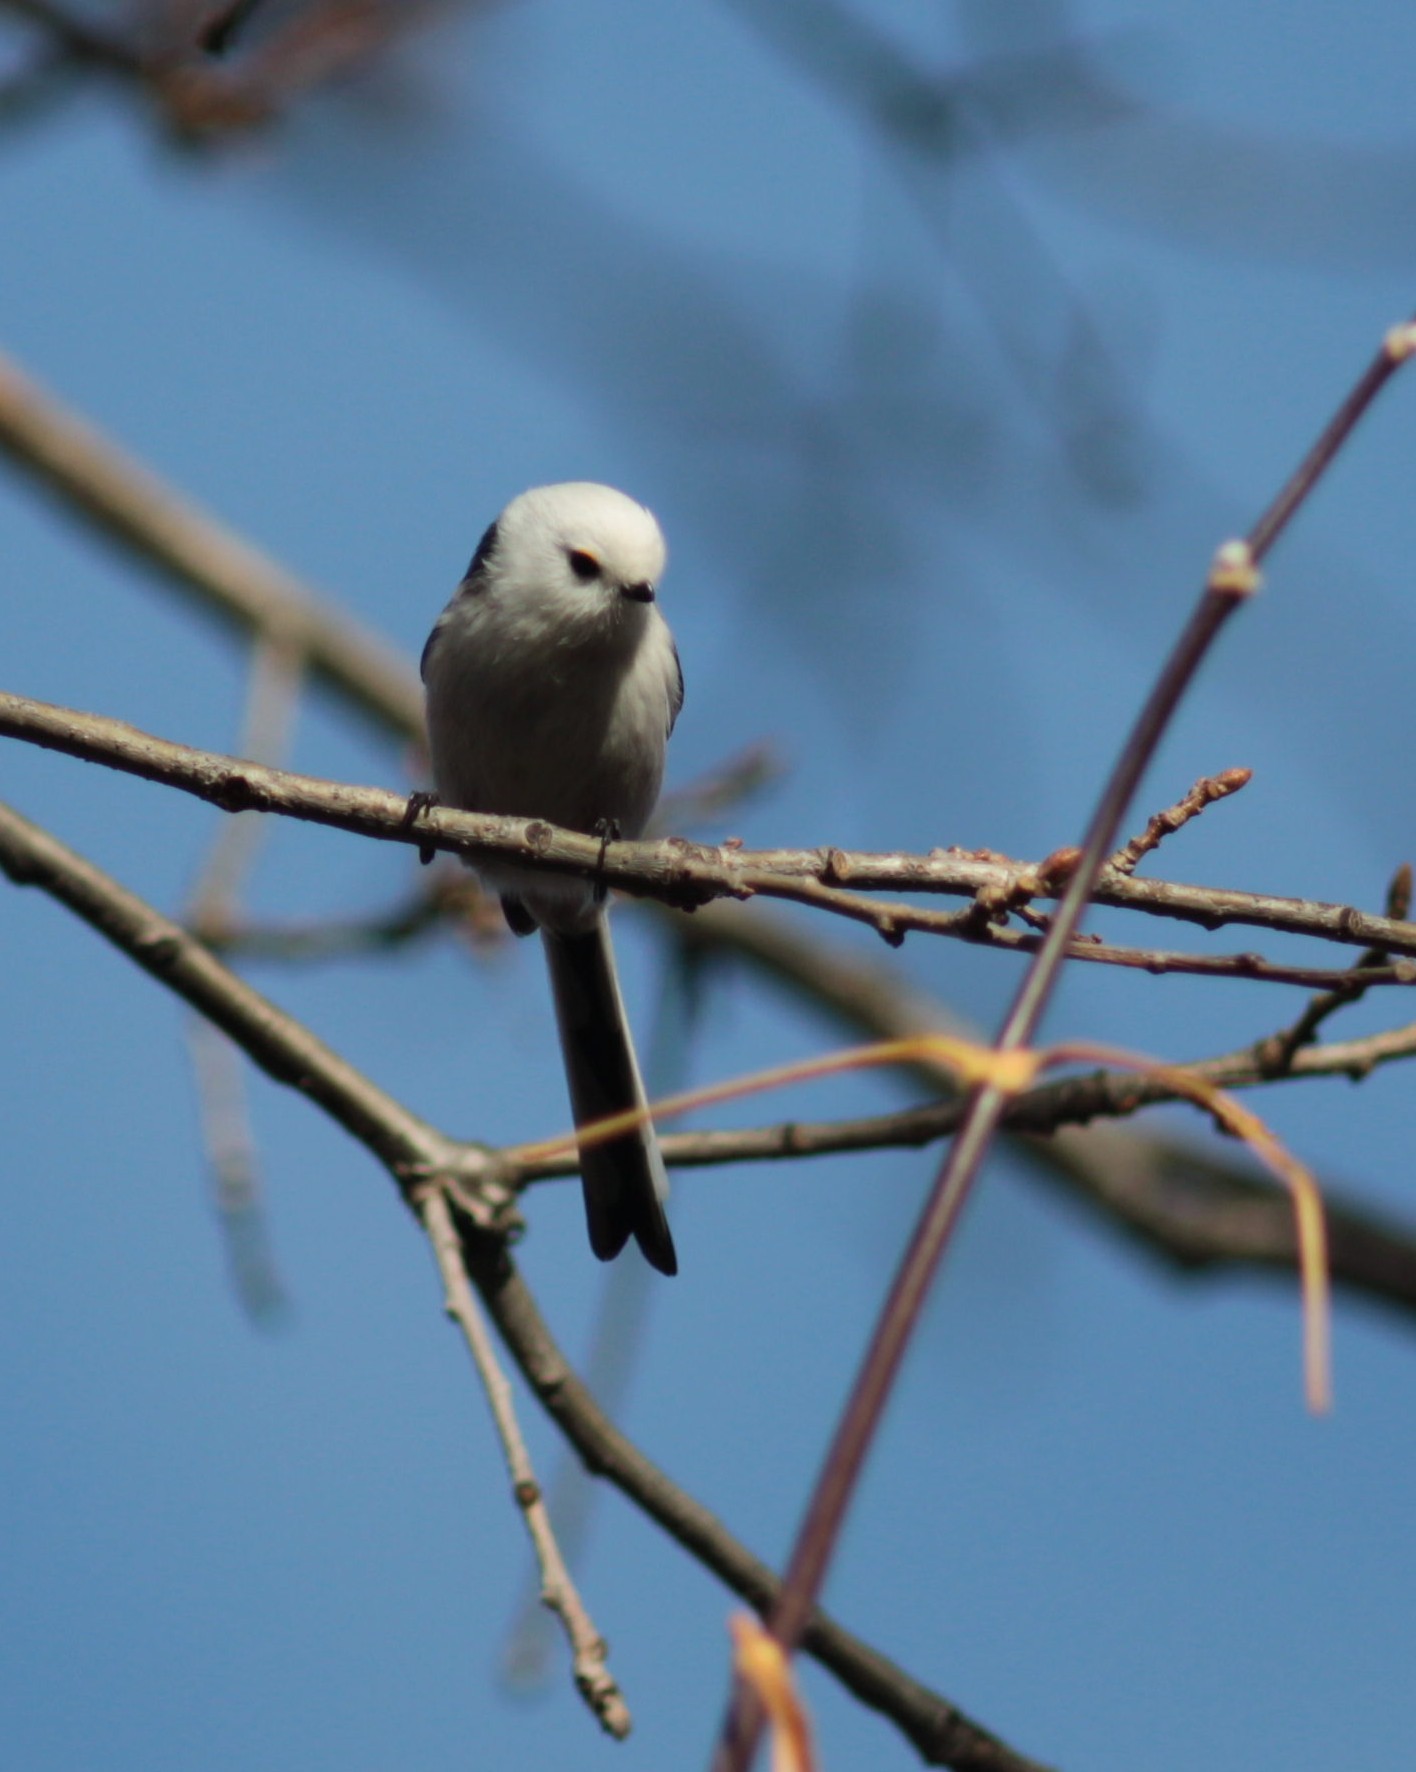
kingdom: Animalia
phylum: Chordata
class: Aves
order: Passeriformes
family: Aegithalidae
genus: Aegithalos
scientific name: Aegithalos caudatus
